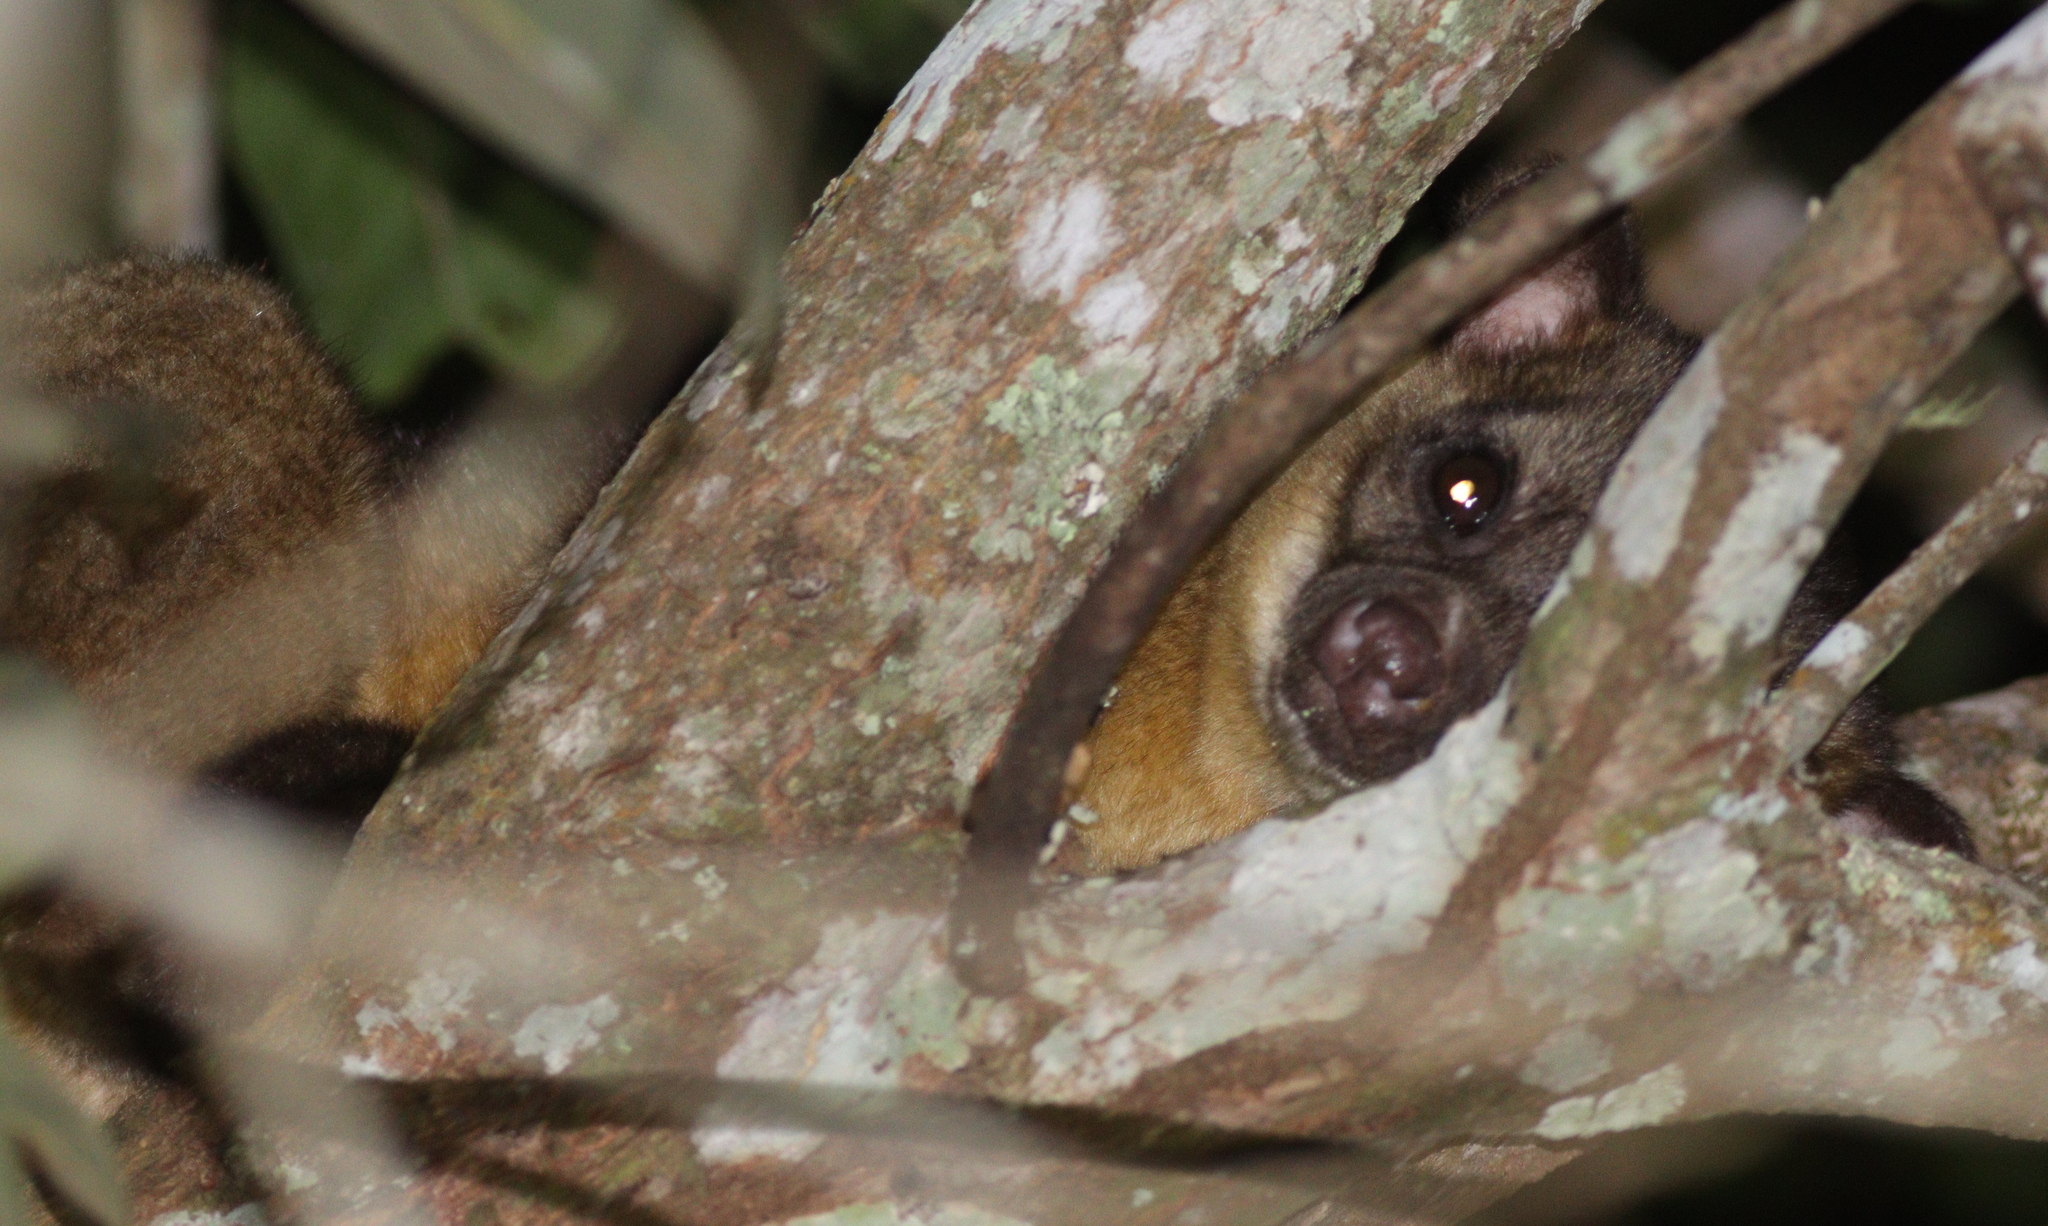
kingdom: Animalia
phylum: Chordata
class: Mammalia
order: Carnivora
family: Procyonidae
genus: Potos
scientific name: Potos flavus
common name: Kinkajou
